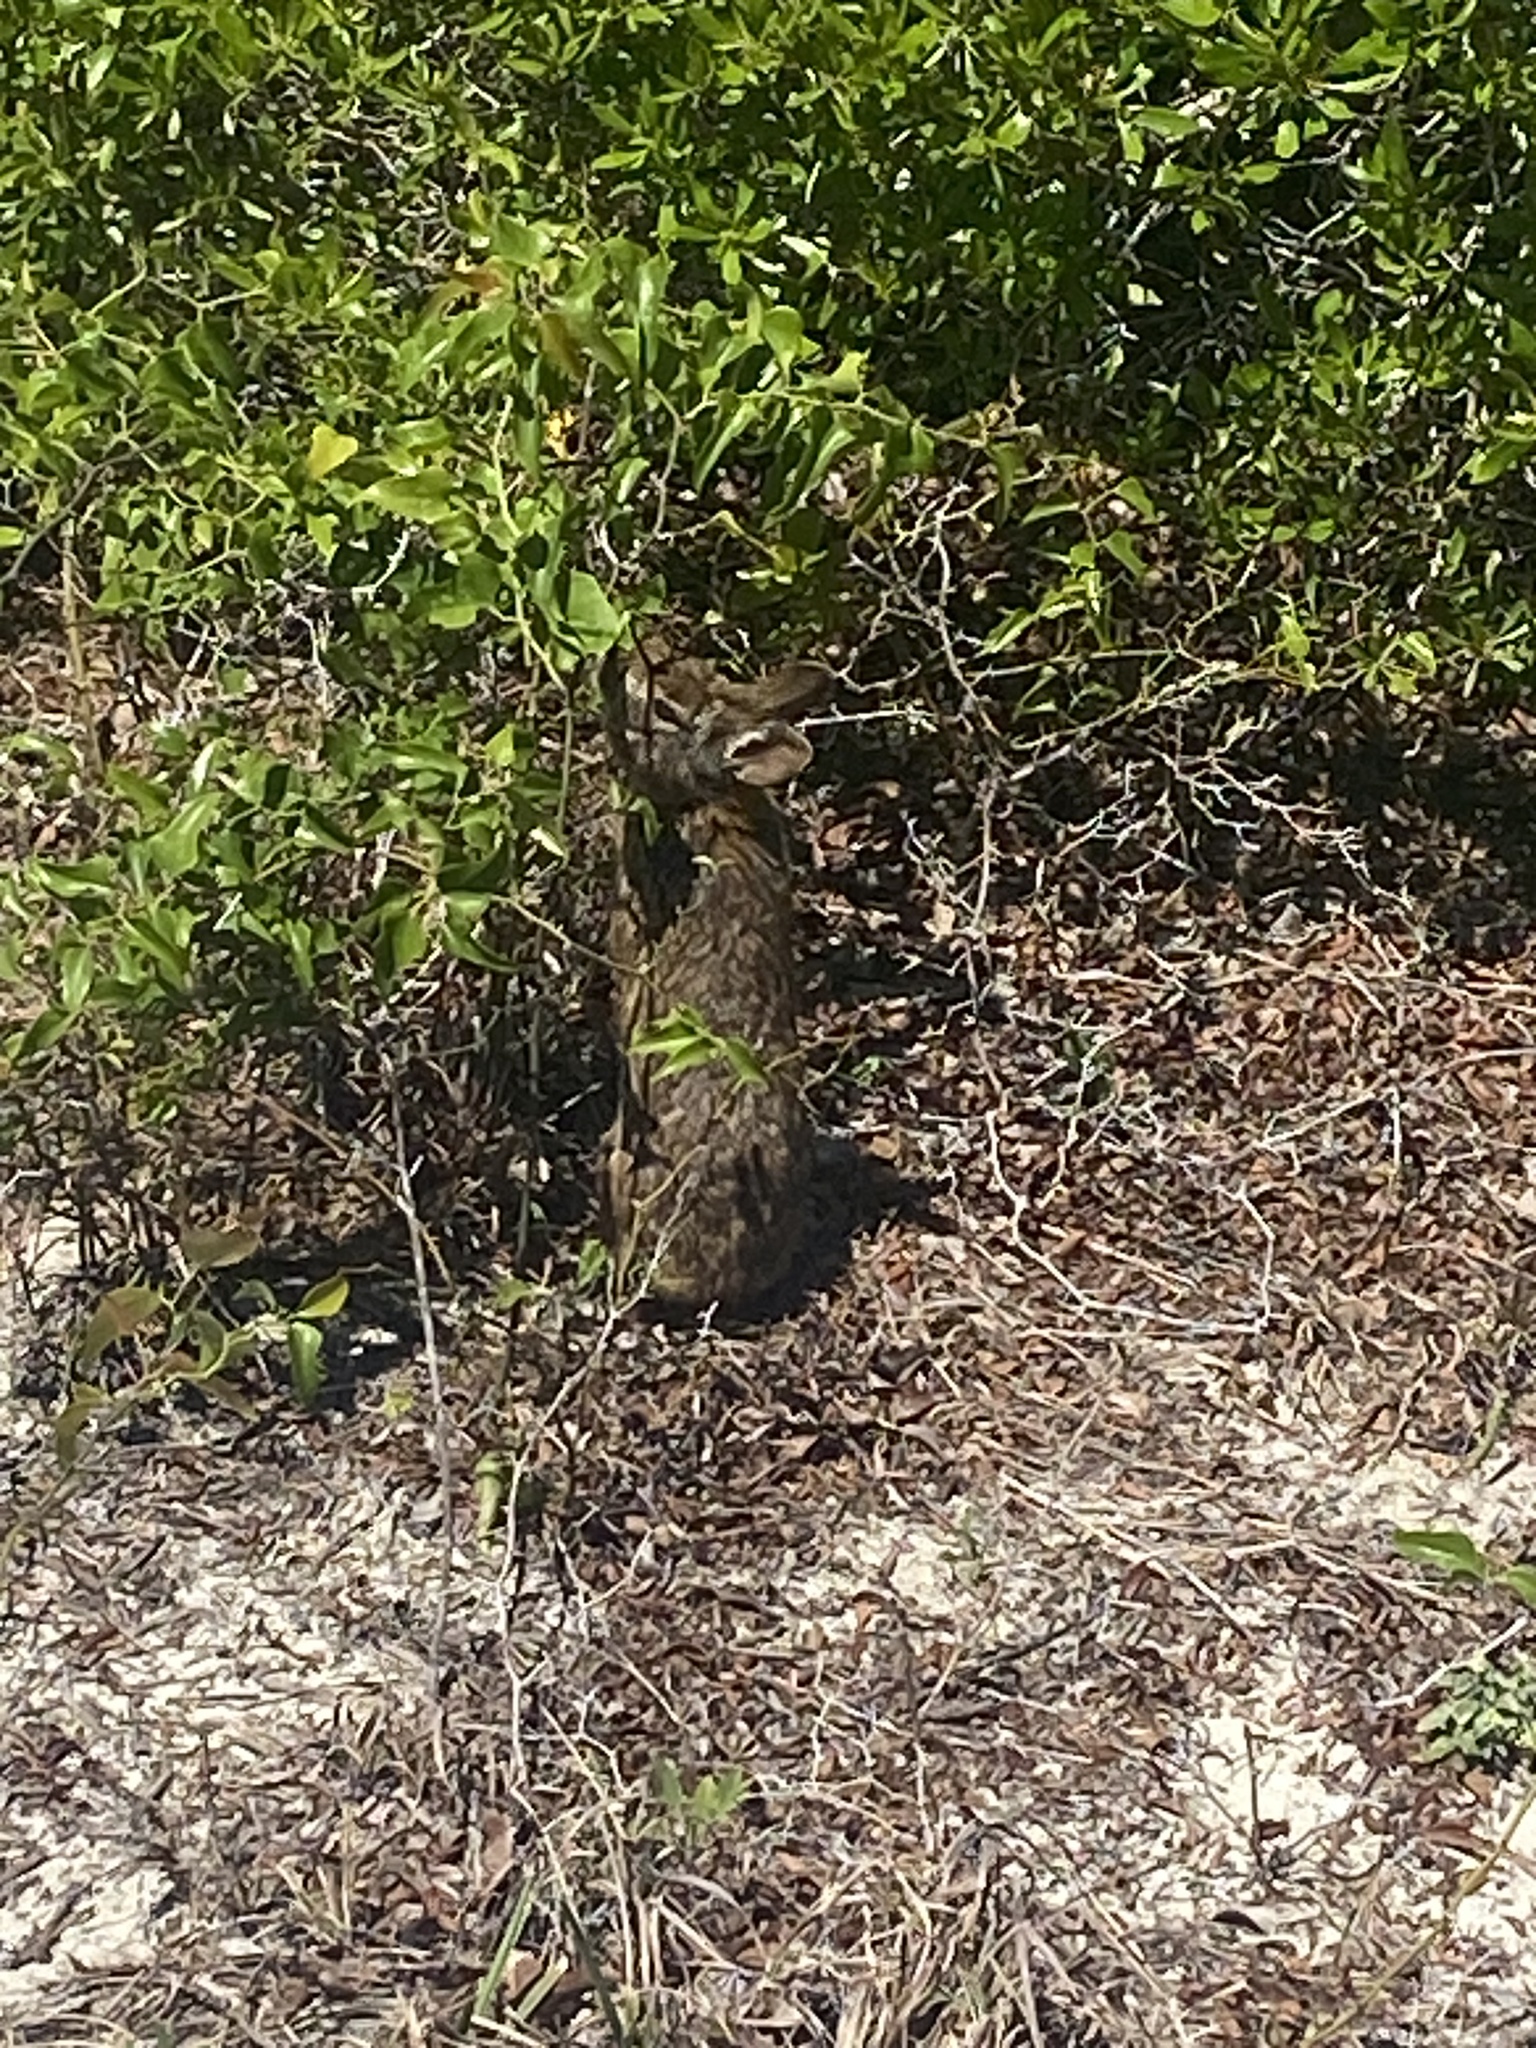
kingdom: Animalia
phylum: Chordata
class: Mammalia
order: Lagomorpha
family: Leporidae
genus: Sylvilagus
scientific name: Sylvilagus palustris
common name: Marsh rabbit
